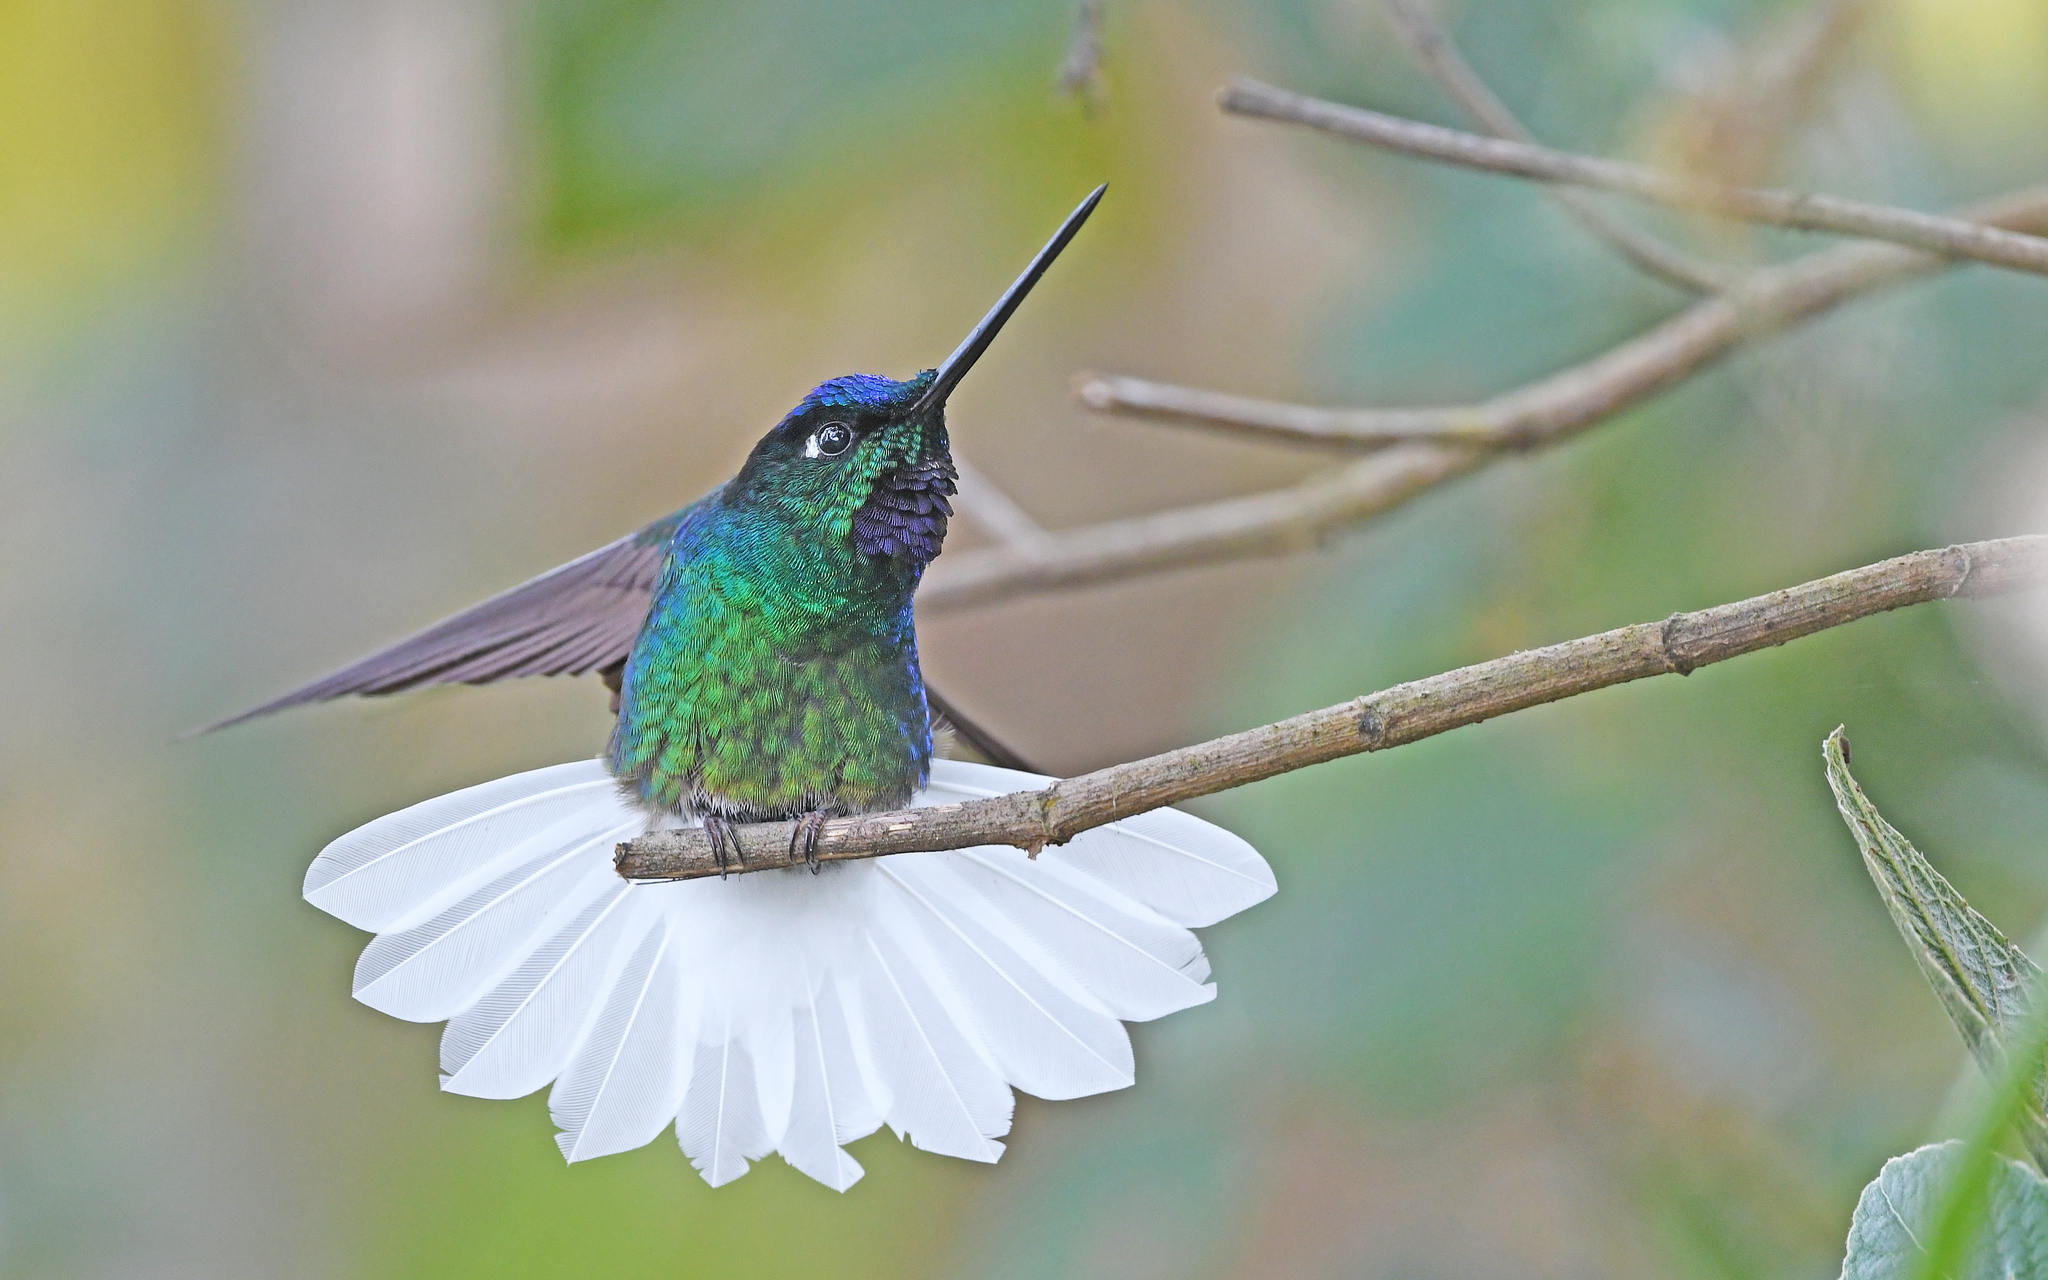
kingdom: Animalia
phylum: Chordata
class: Aves
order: Apodiformes
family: Trochilidae
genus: Coeligena
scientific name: Coeligena phalerata
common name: White-tailed starfrontlet
